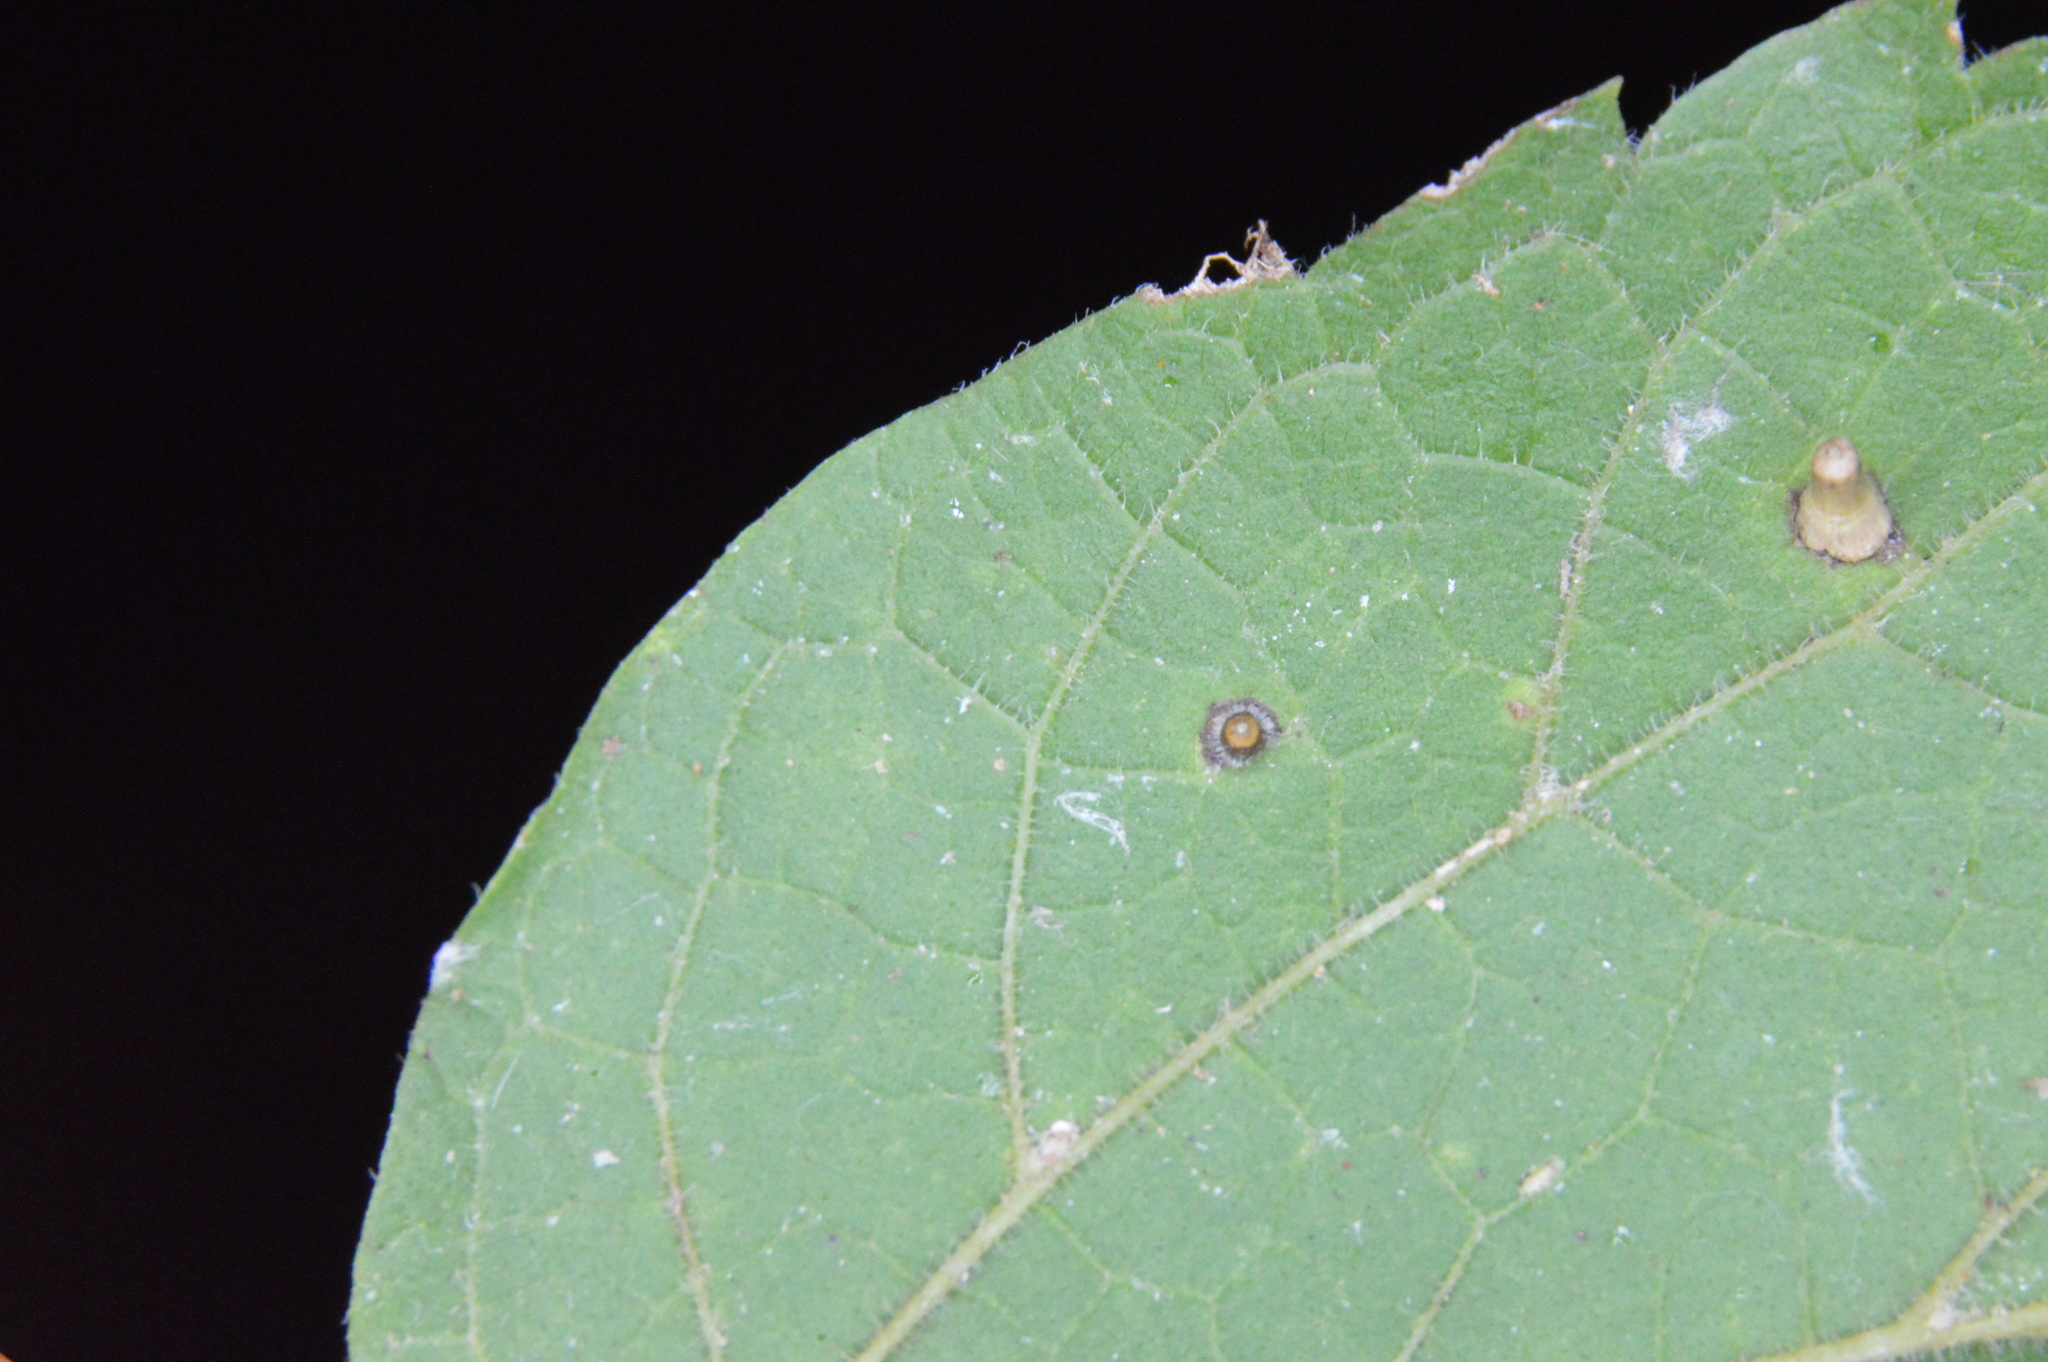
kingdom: Animalia
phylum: Arthropoda
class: Insecta
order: Diptera
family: Cecidomyiidae
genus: Celticecis
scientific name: Celticecis cupiformis
